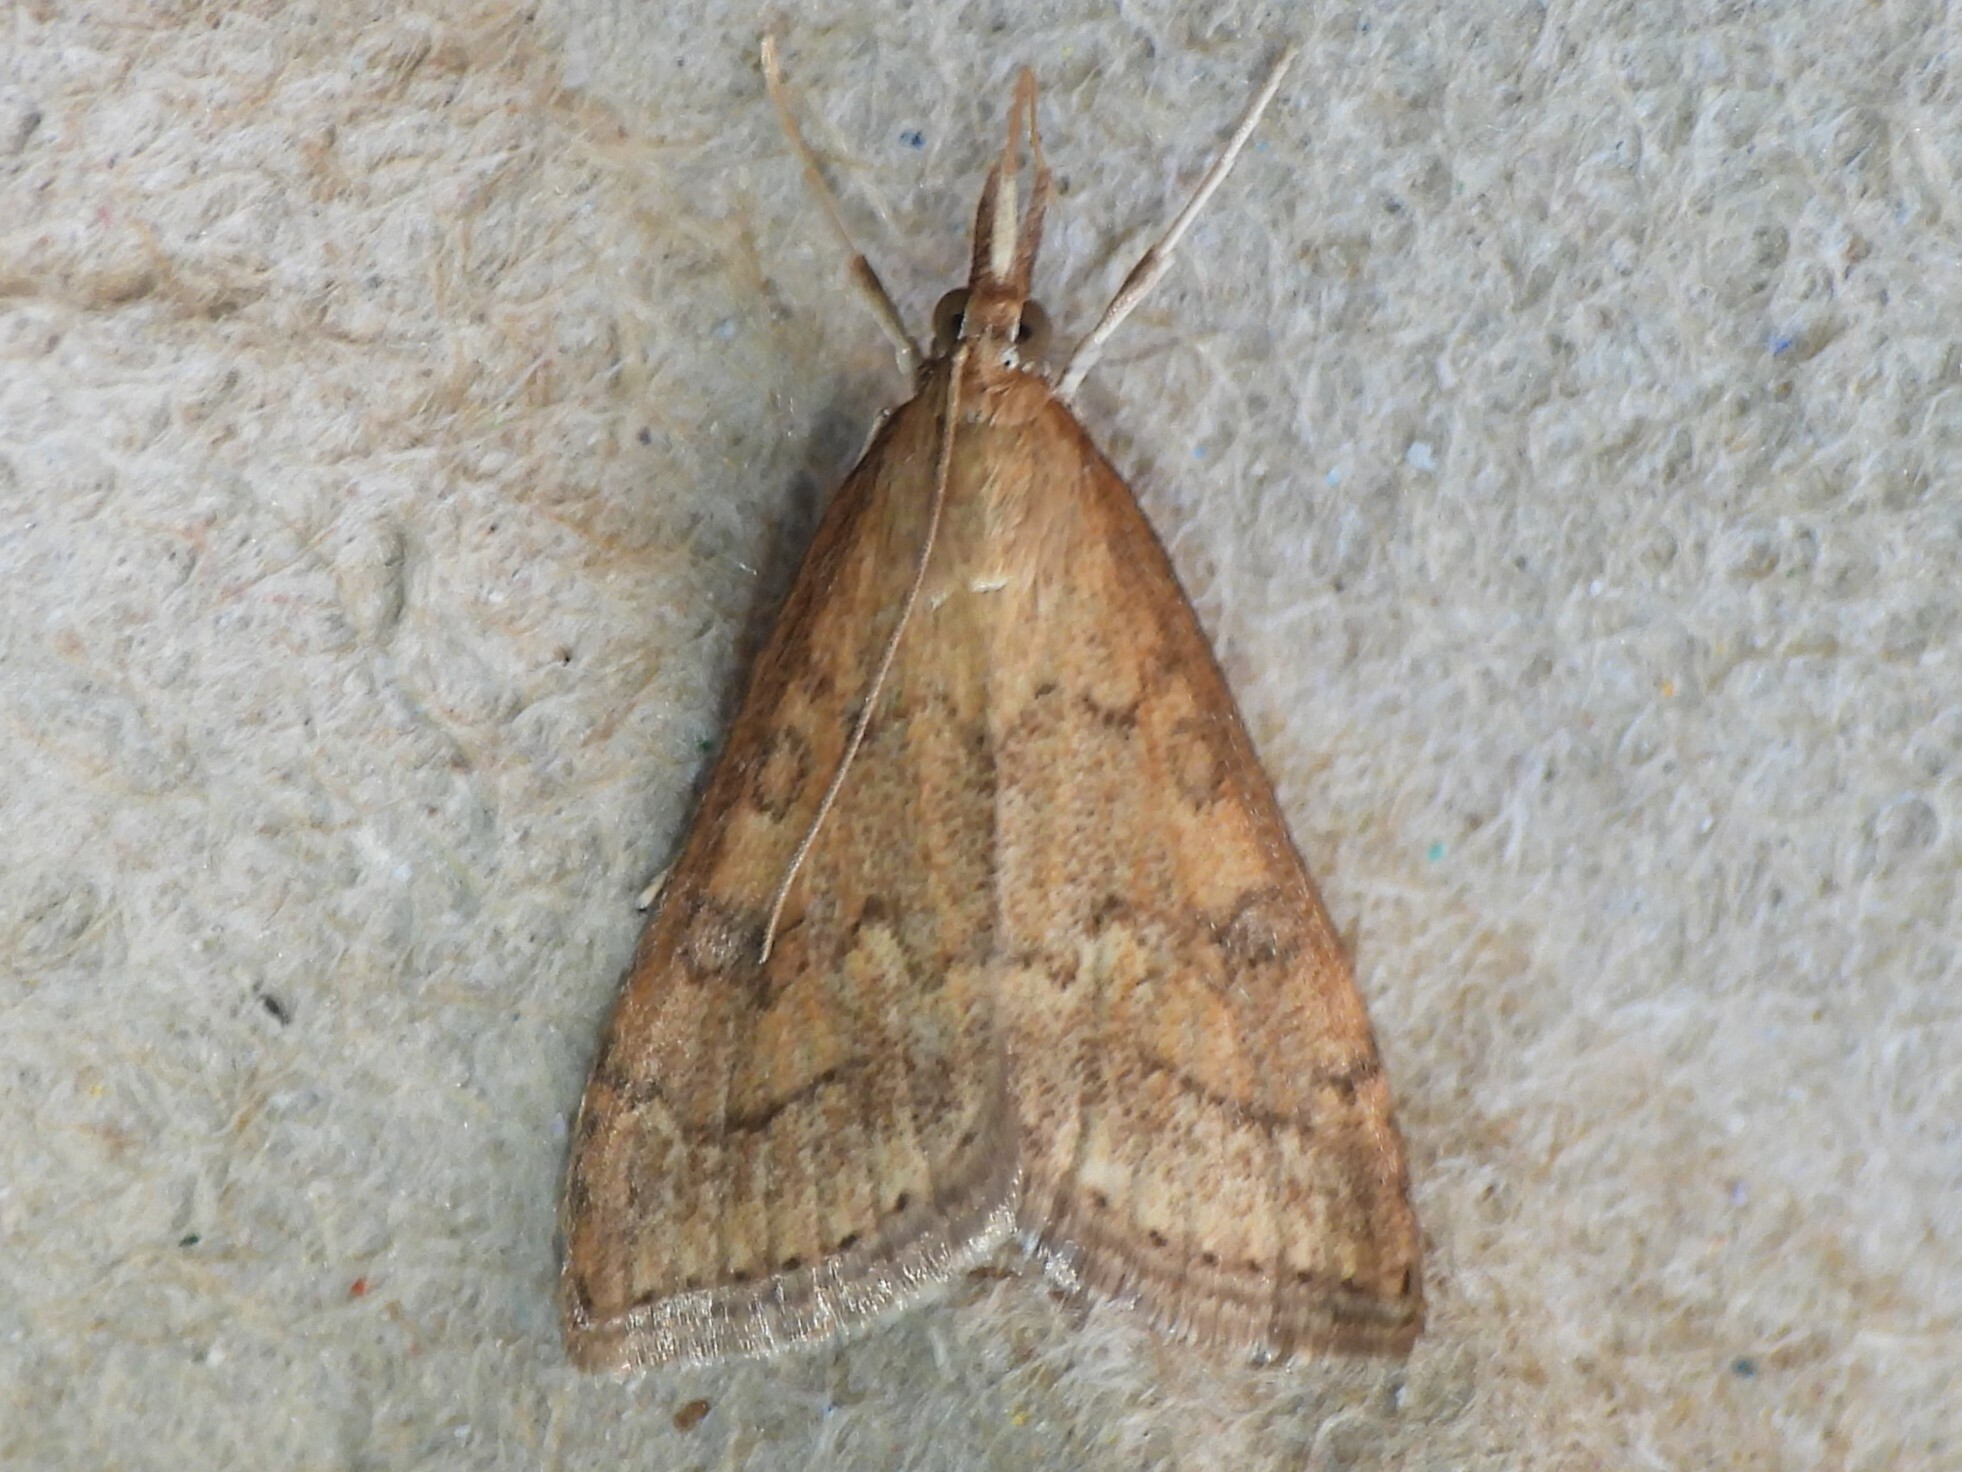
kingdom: Animalia
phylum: Arthropoda
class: Insecta
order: Lepidoptera
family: Crambidae
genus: Udea
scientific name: Udea rubigalis
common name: Celery leaftier moth
